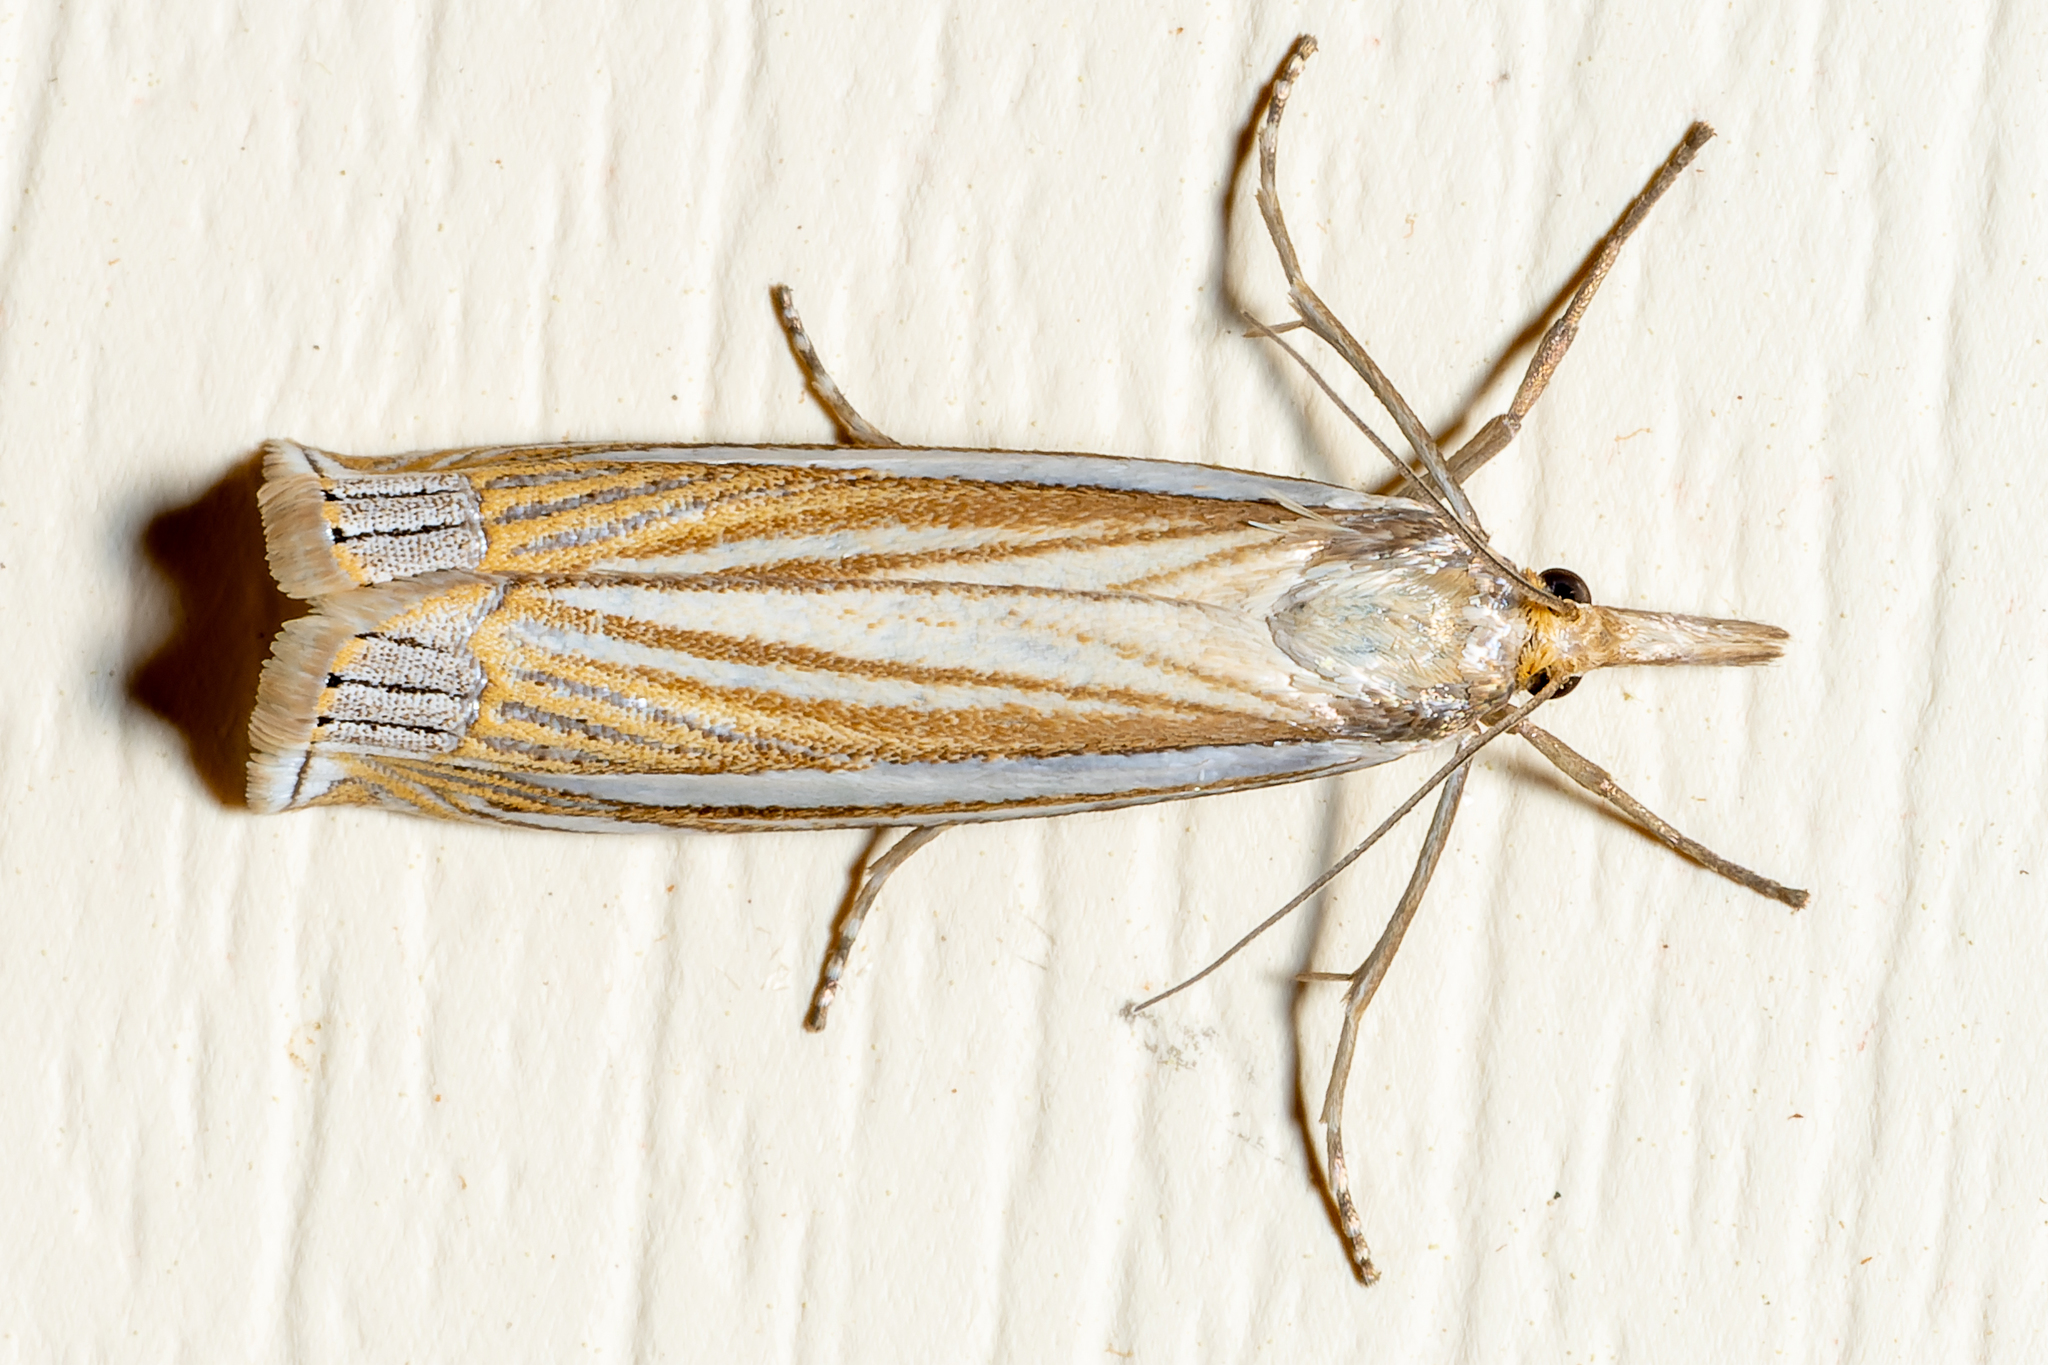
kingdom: Animalia
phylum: Arthropoda
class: Insecta
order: Lepidoptera
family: Crambidae
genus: Crambus
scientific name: Crambus laqueatellus
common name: Eastern grass-veneer
